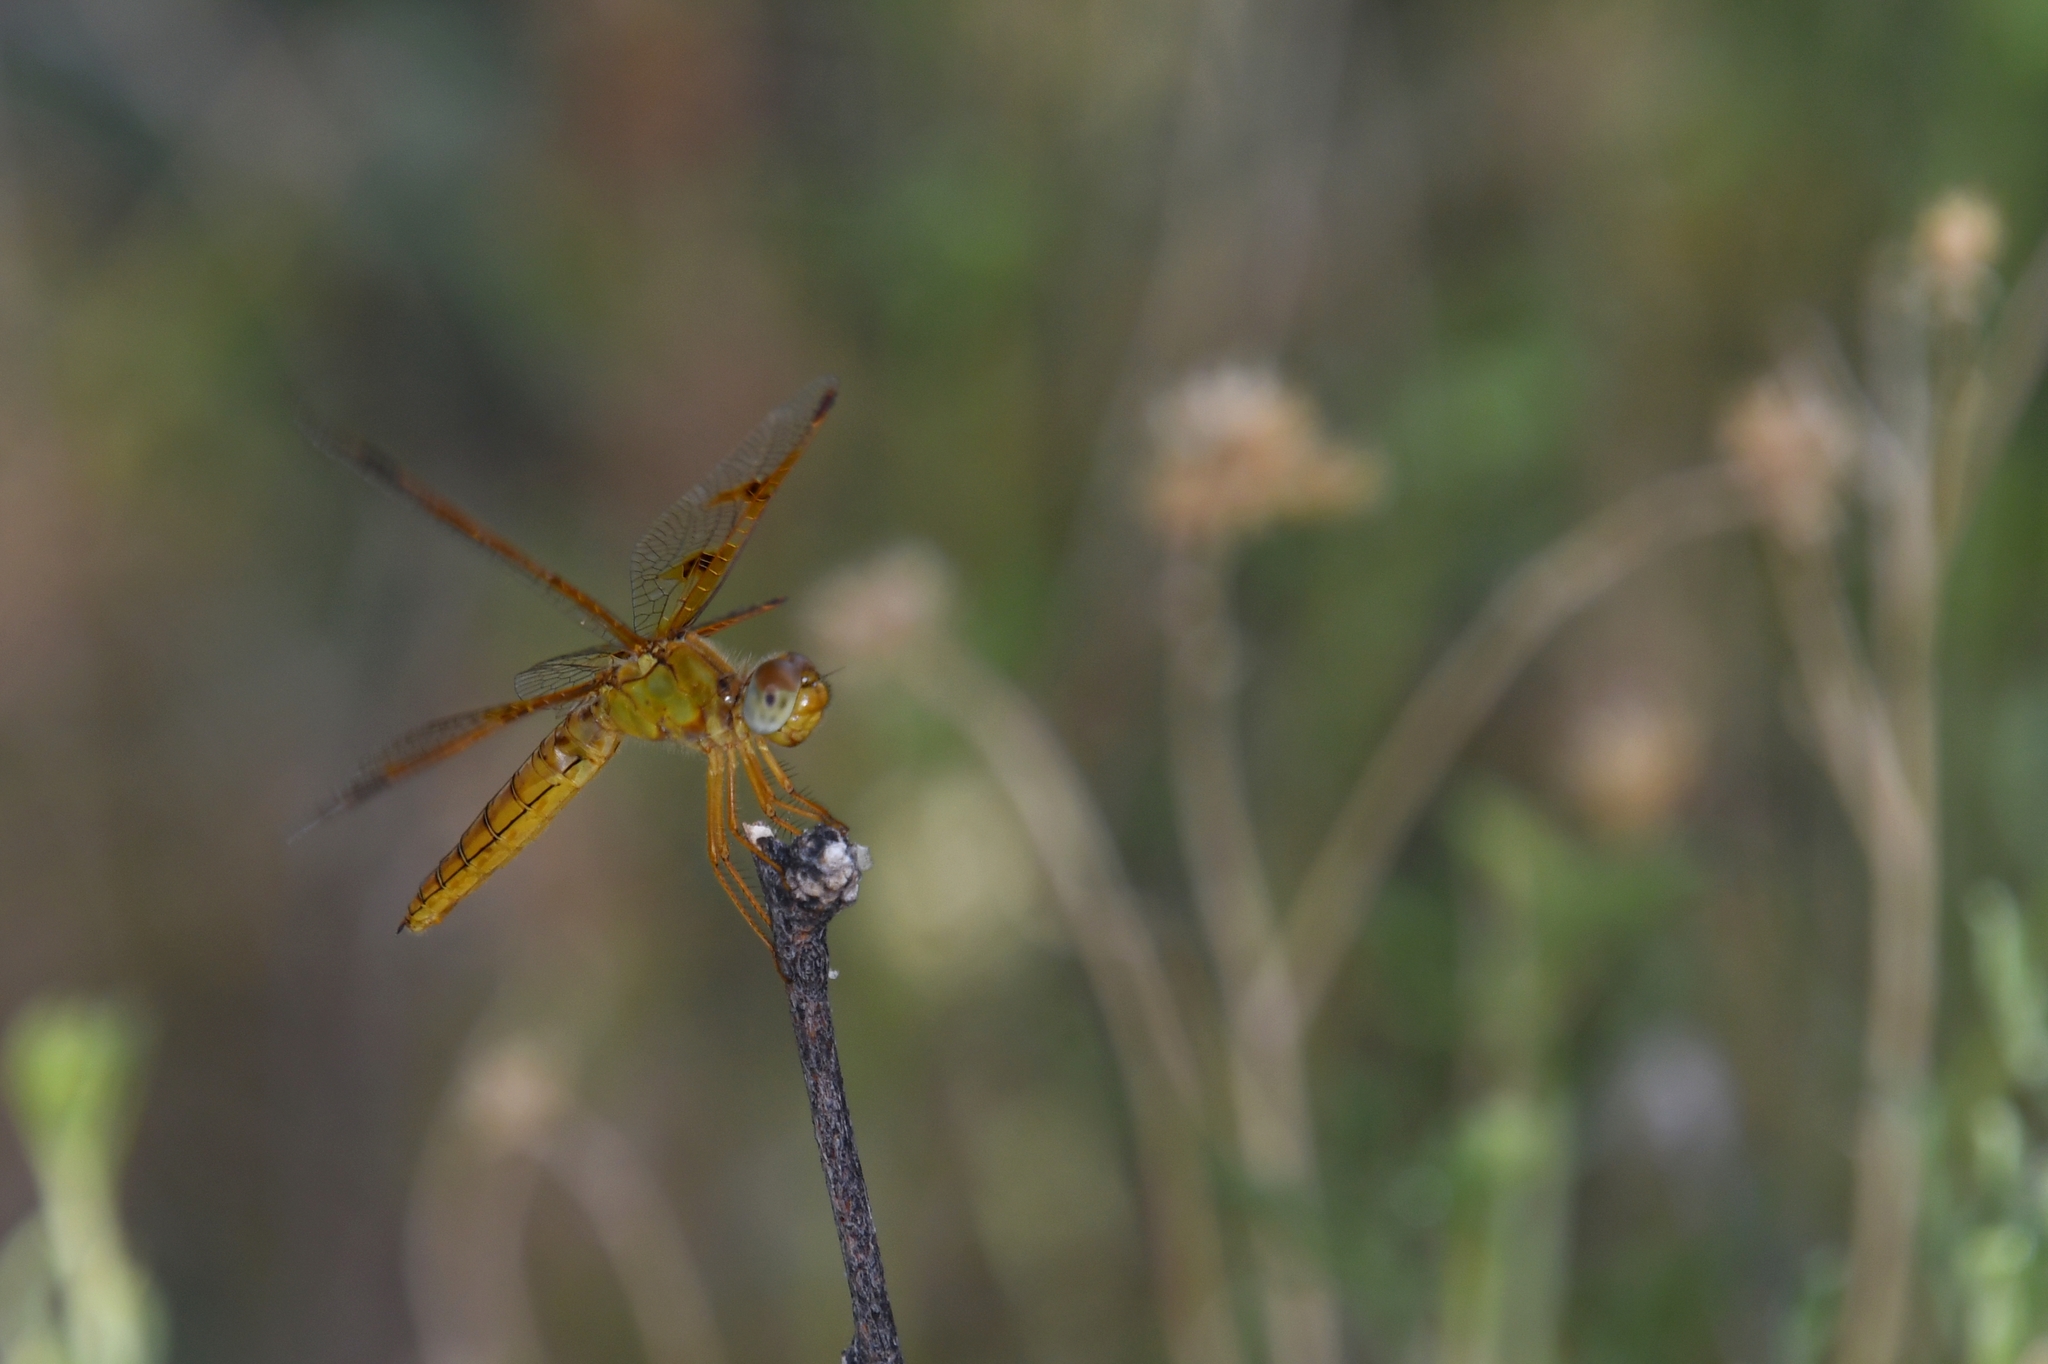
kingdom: Animalia
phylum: Arthropoda
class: Insecta
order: Odonata
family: Libellulidae
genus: Perithemis
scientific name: Perithemis intensa
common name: Mexican amberwing
